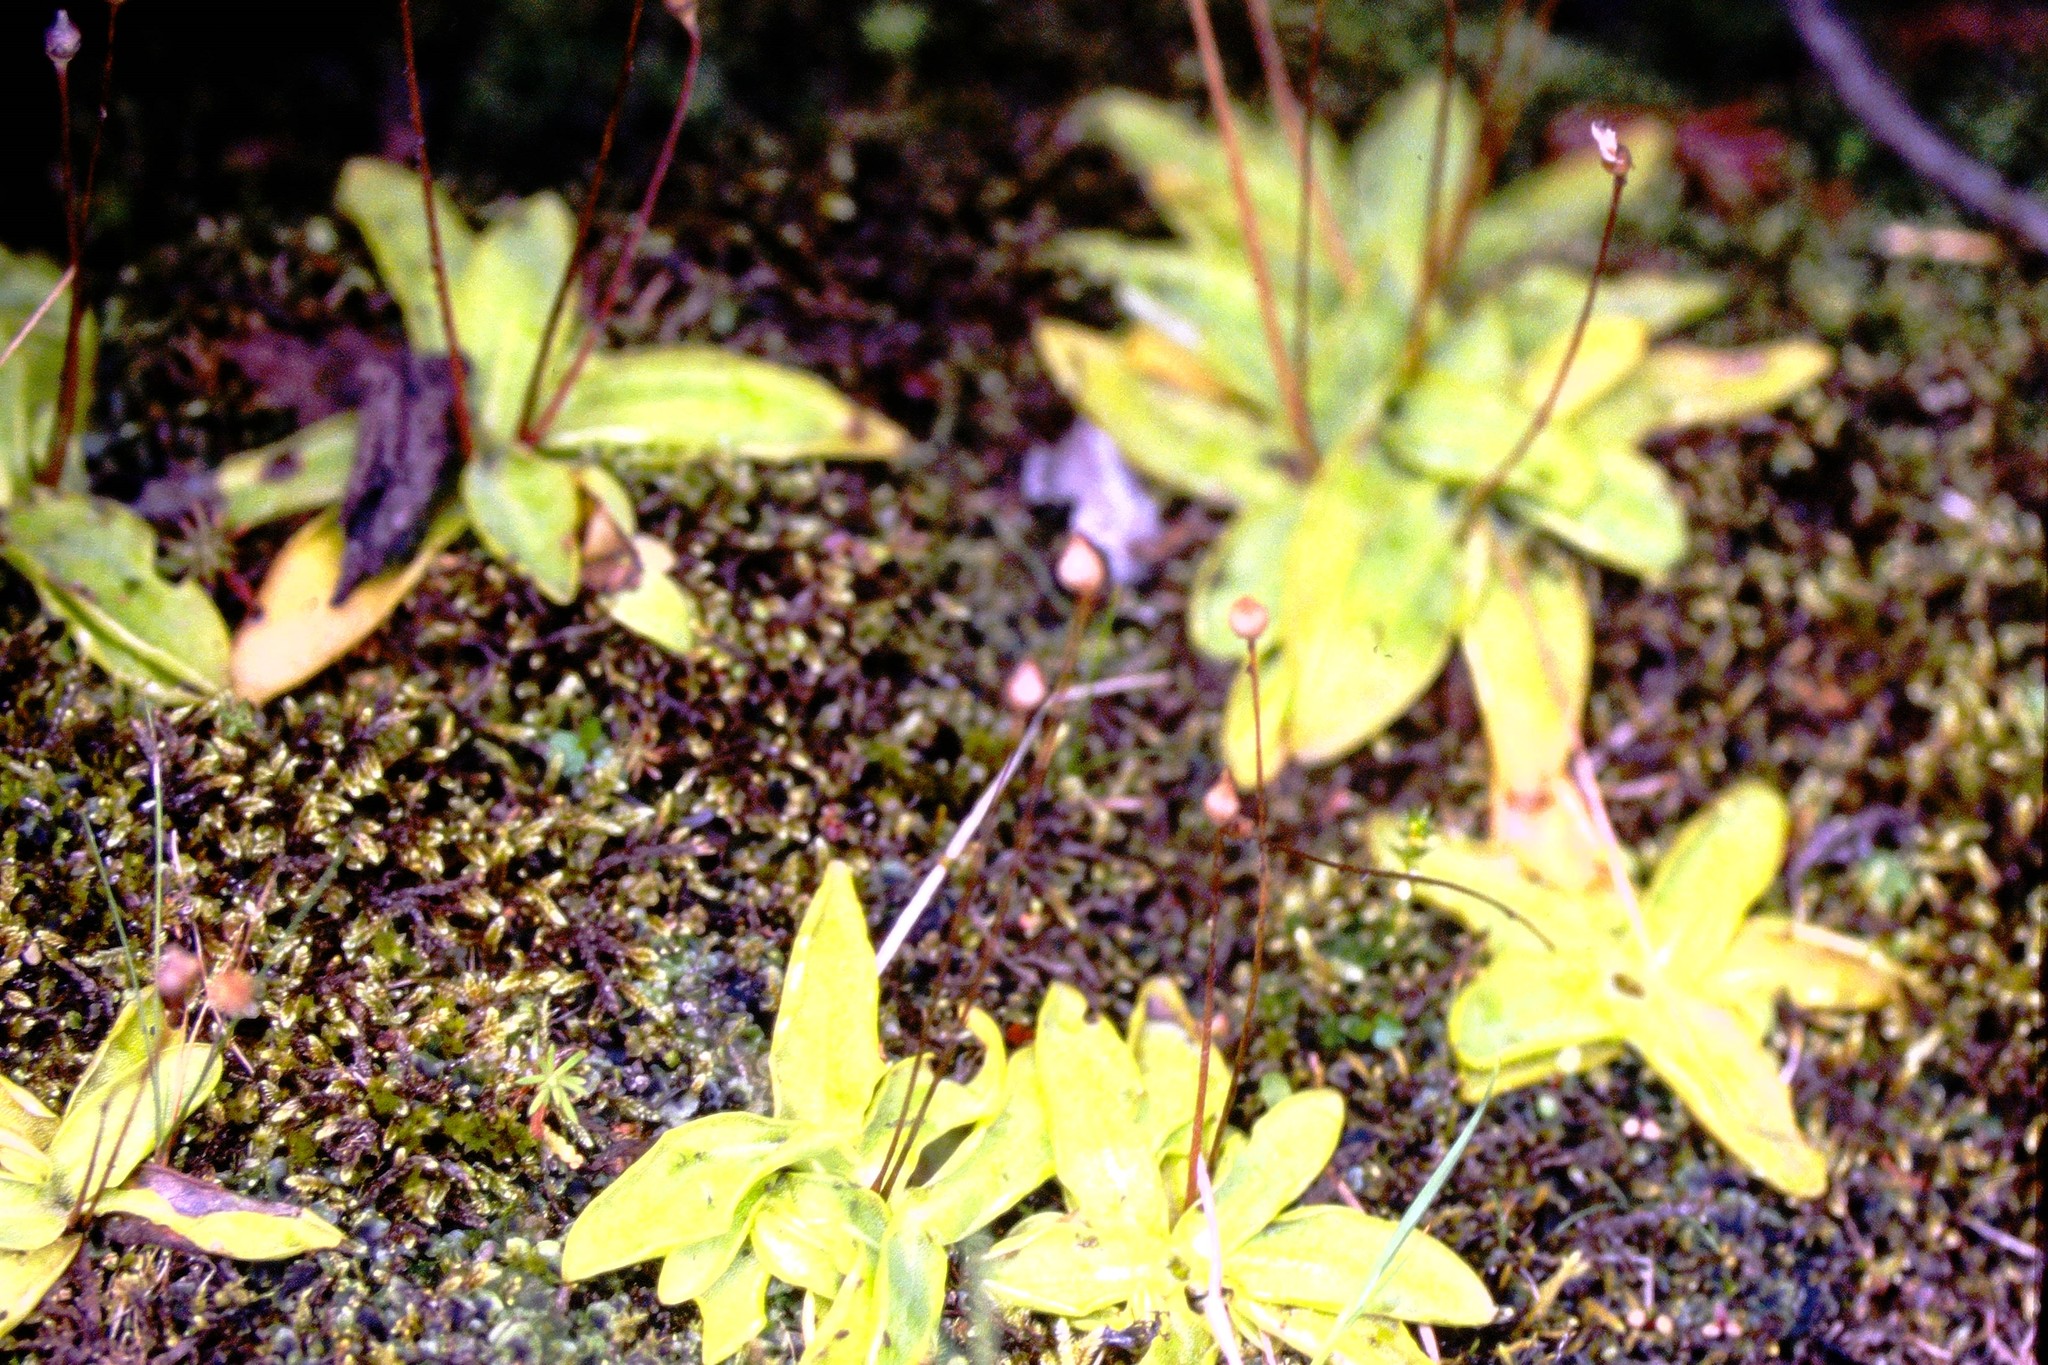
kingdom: Plantae
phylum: Tracheophyta
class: Magnoliopsida
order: Lamiales
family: Lentibulariaceae
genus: Pinguicula
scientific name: Pinguicula vulgaris
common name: Common butterwort
